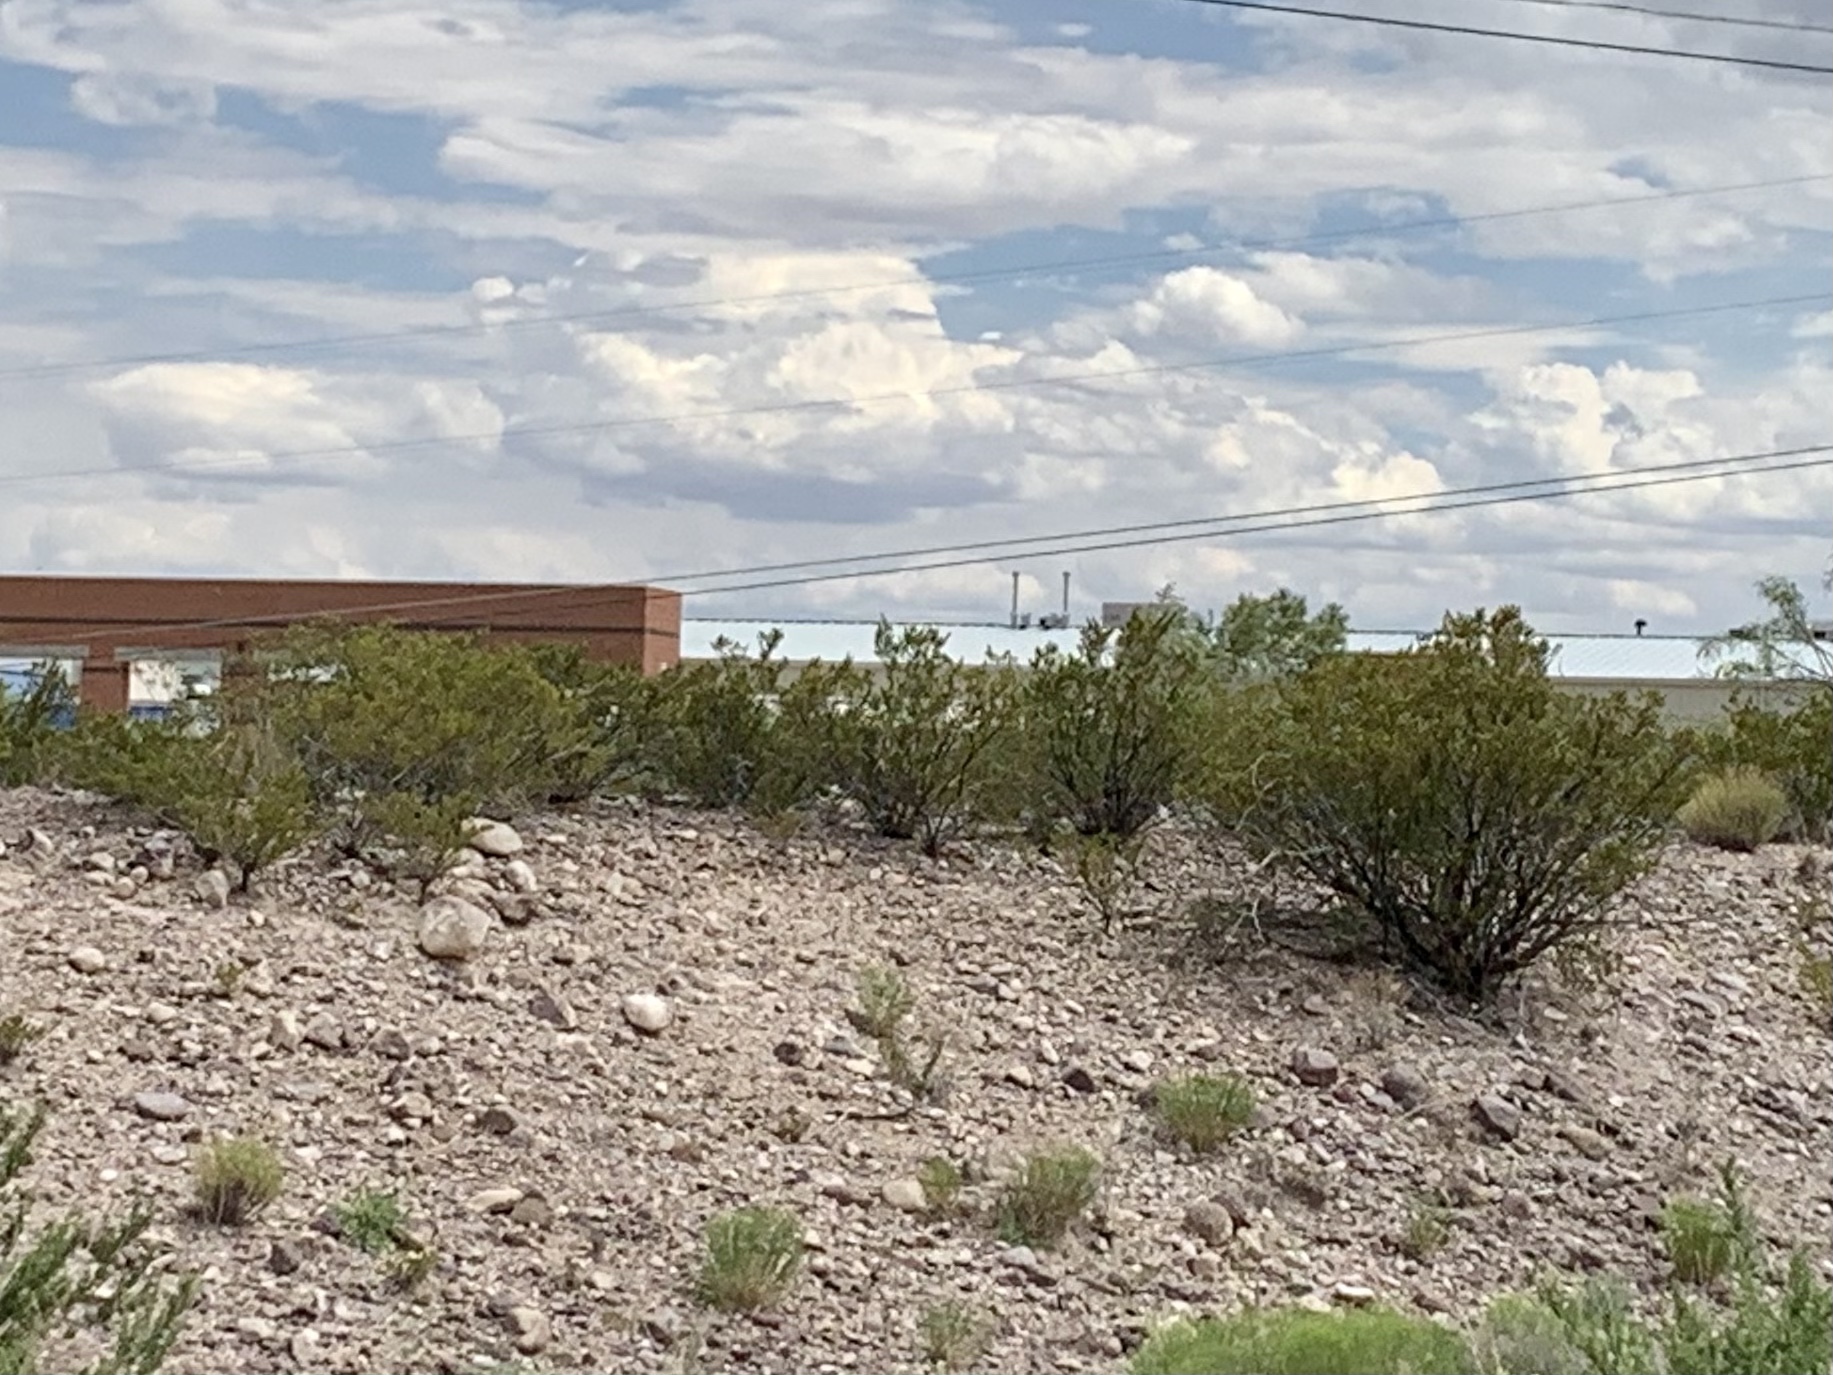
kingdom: Plantae
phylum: Tracheophyta
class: Magnoliopsida
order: Zygophyllales
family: Zygophyllaceae
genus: Larrea
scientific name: Larrea tridentata
